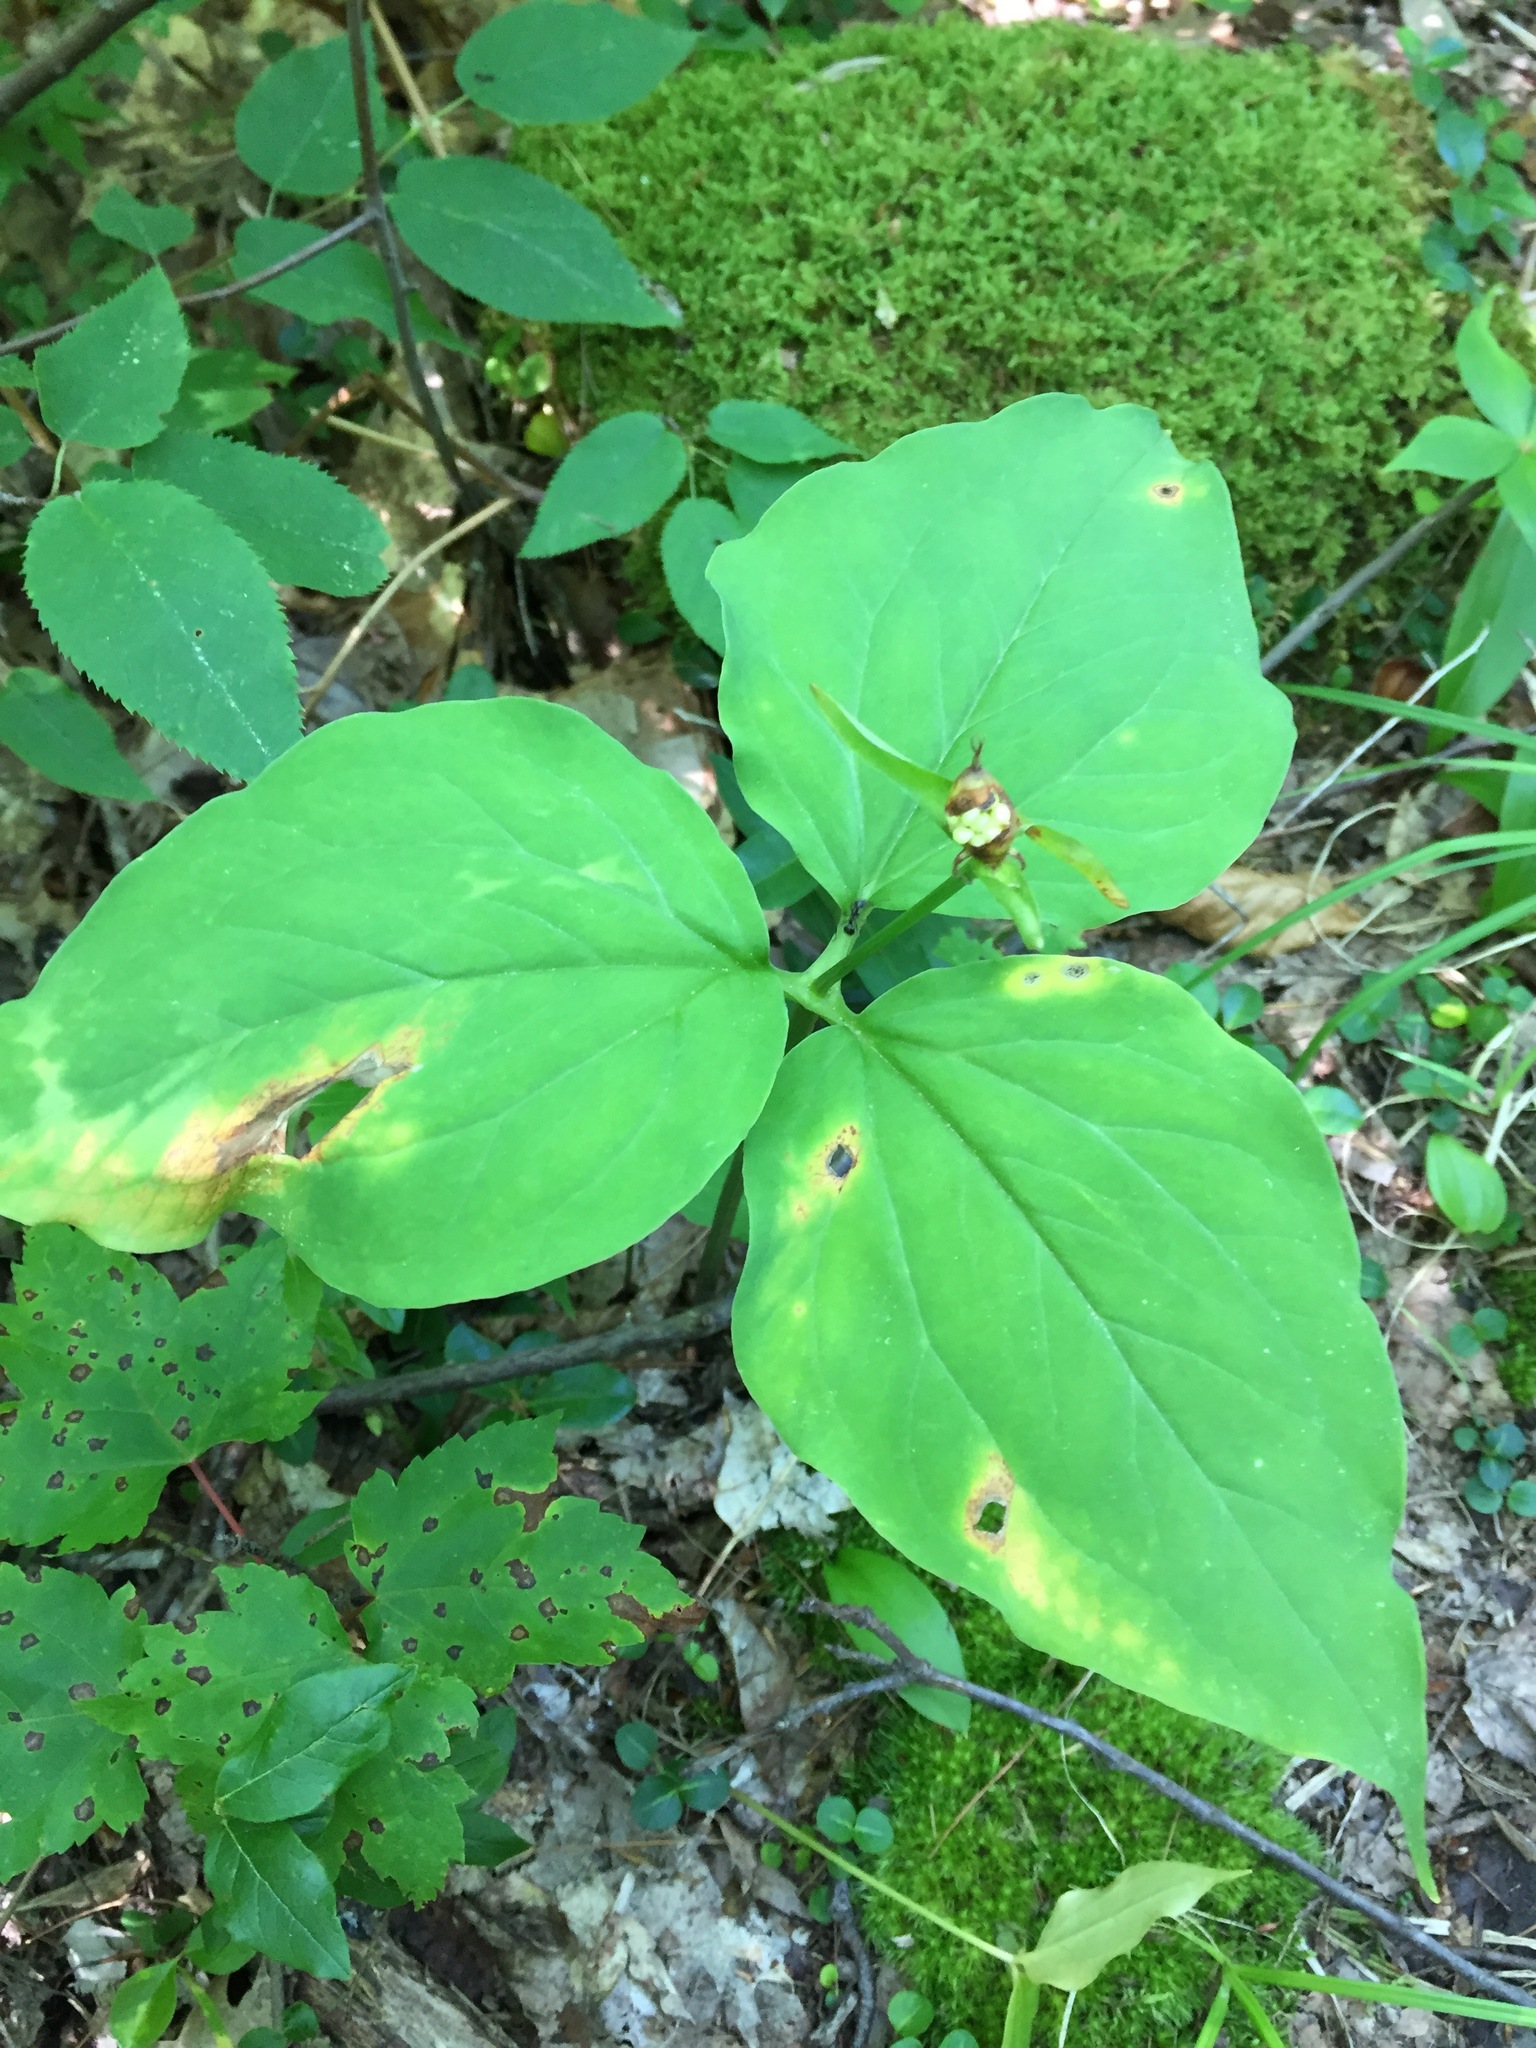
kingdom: Plantae
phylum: Tracheophyta
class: Liliopsida
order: Liliales
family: Melanthiaceae
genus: Trillium
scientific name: Trillium undulatum
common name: Paint trillium
